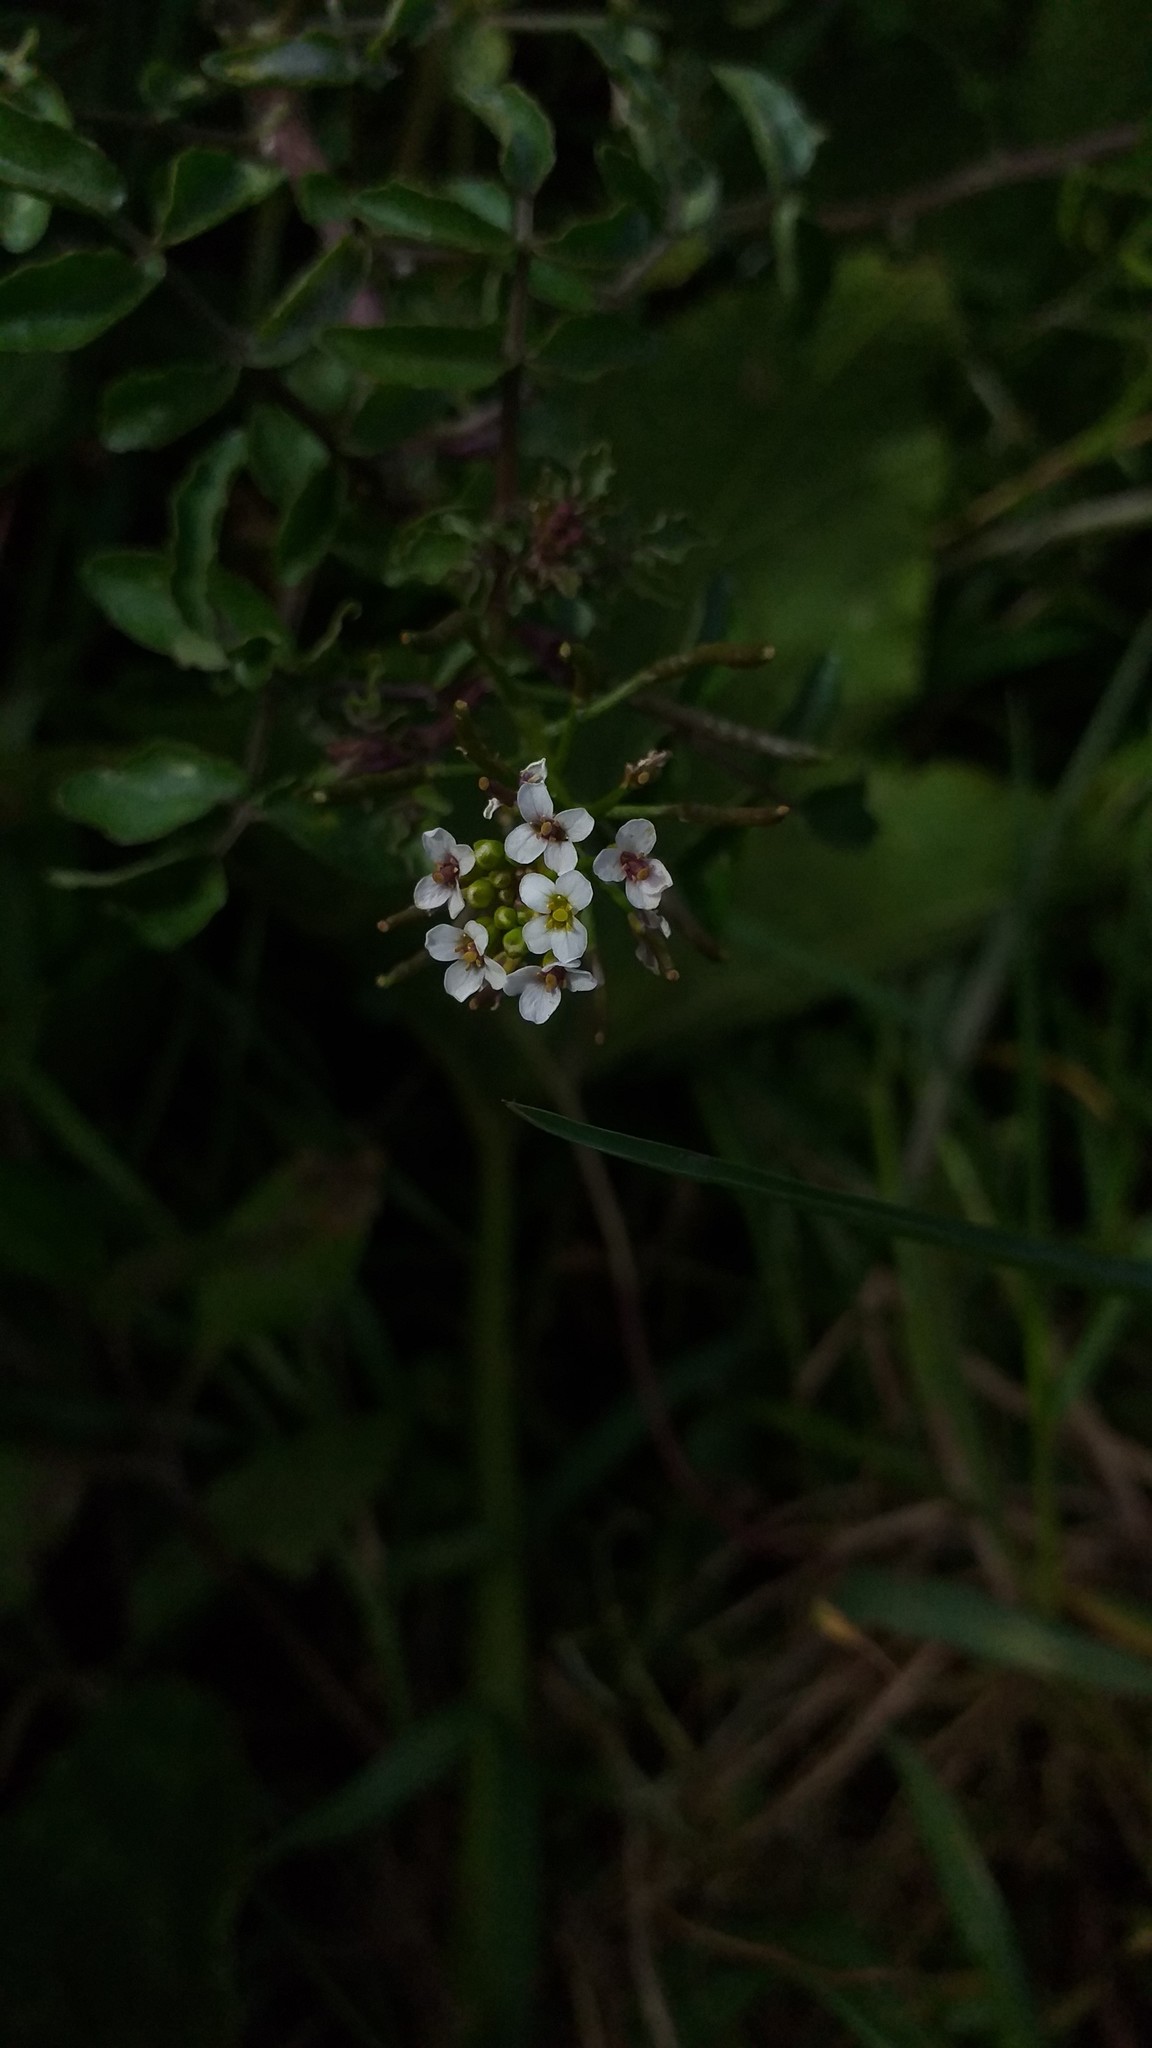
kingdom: Plantae
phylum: Tracheophyta
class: Magnoliopsida
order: Brassicales
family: Brassicaceae
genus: Nasturtium
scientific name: Nasturtium officinale
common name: Watercress
